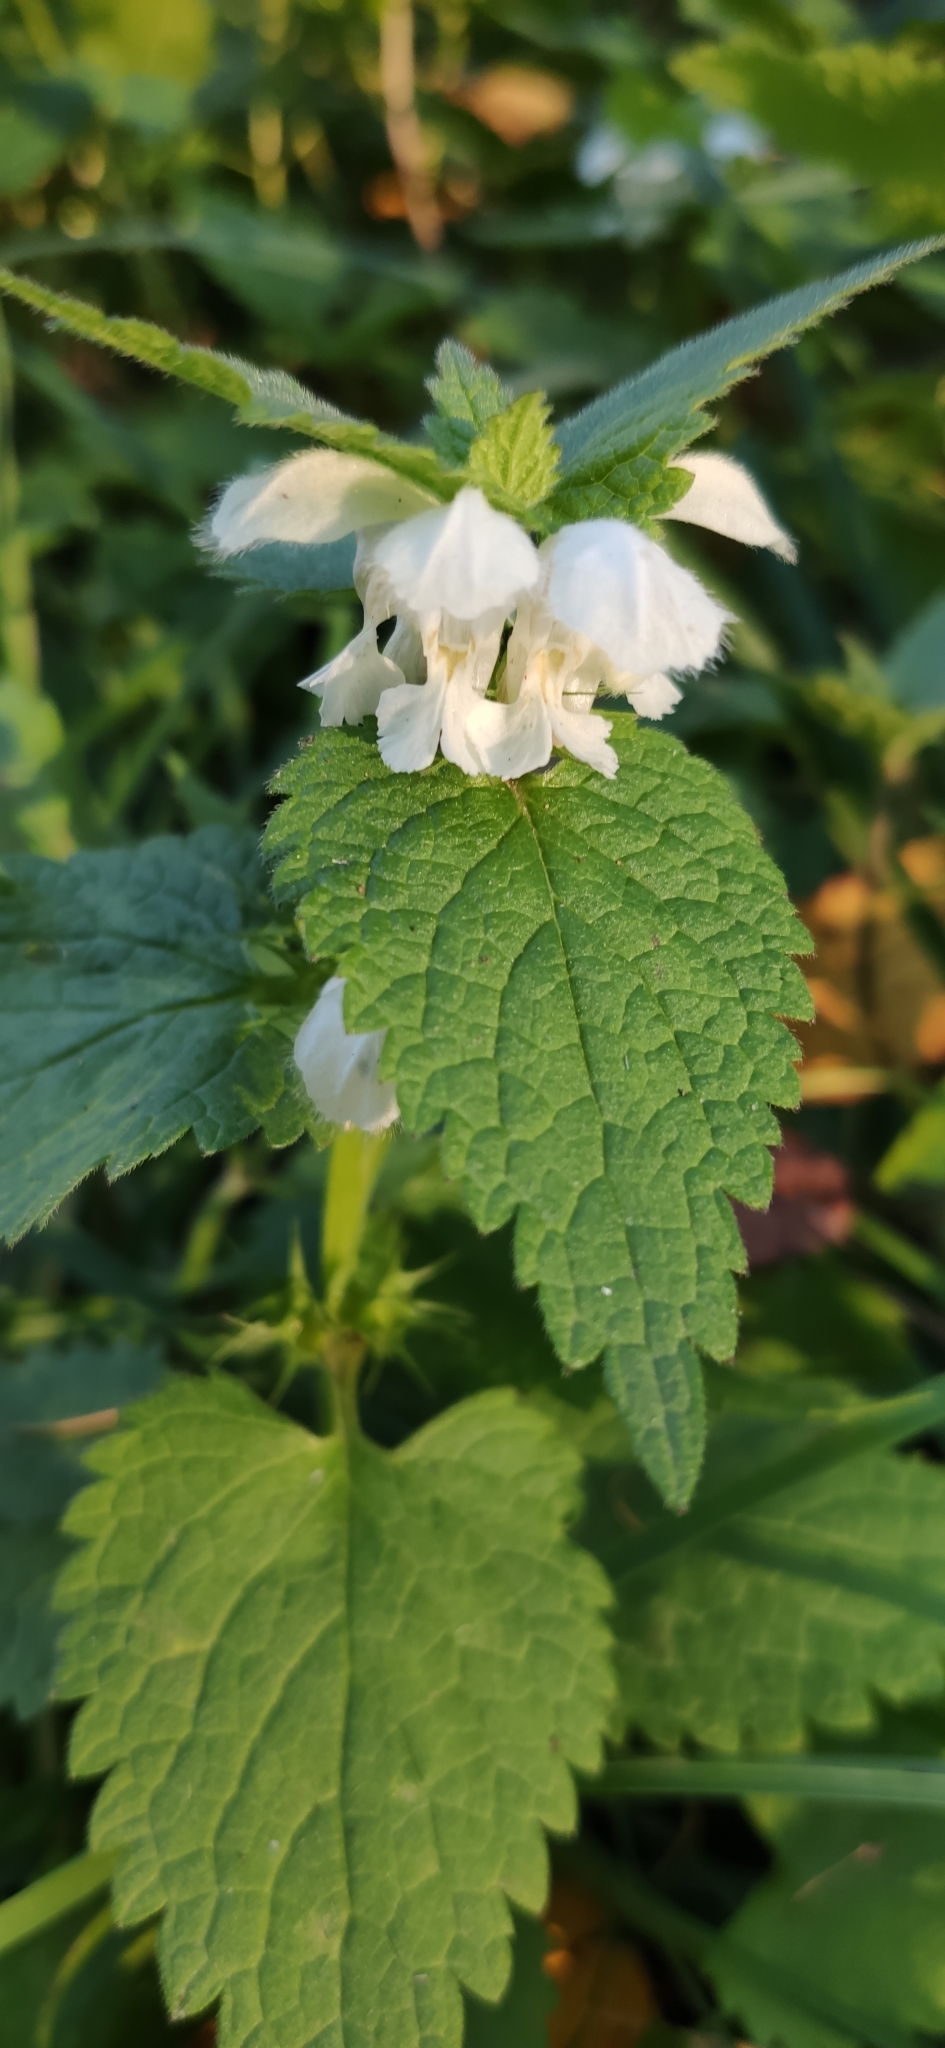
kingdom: Plantae
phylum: Tracheophyta
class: Magnoliopsida
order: Lamiales
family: Lamiaceae
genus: Lamium
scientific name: Lamium album
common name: White dead-nettle
